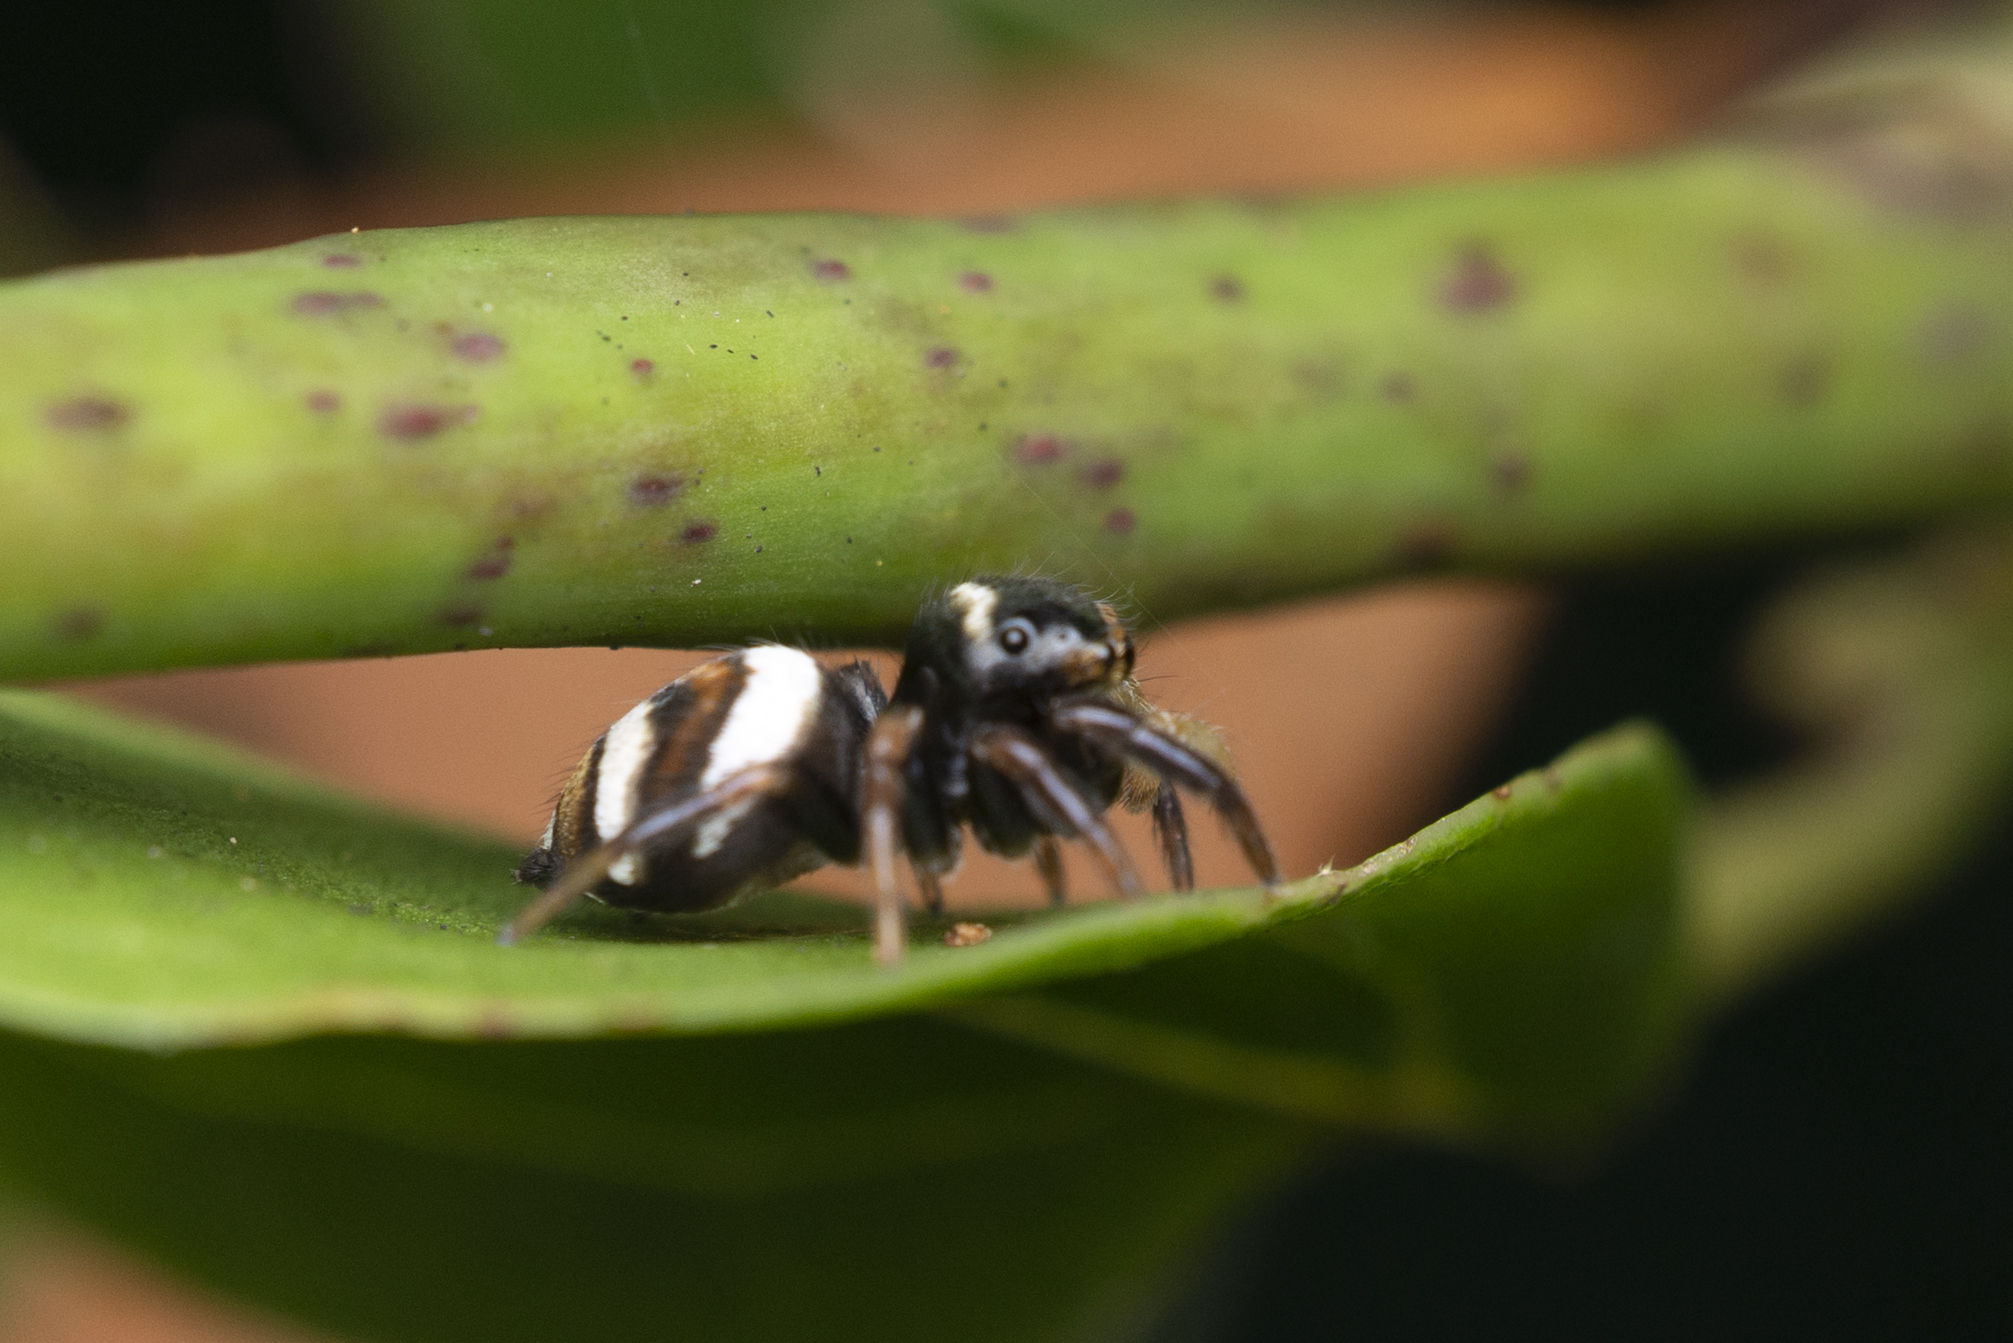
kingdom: Animalia
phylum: Arthropoda
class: Arachnida
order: Araneae
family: Salticidae
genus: Ptocasius
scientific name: Ptocasius strupifer
